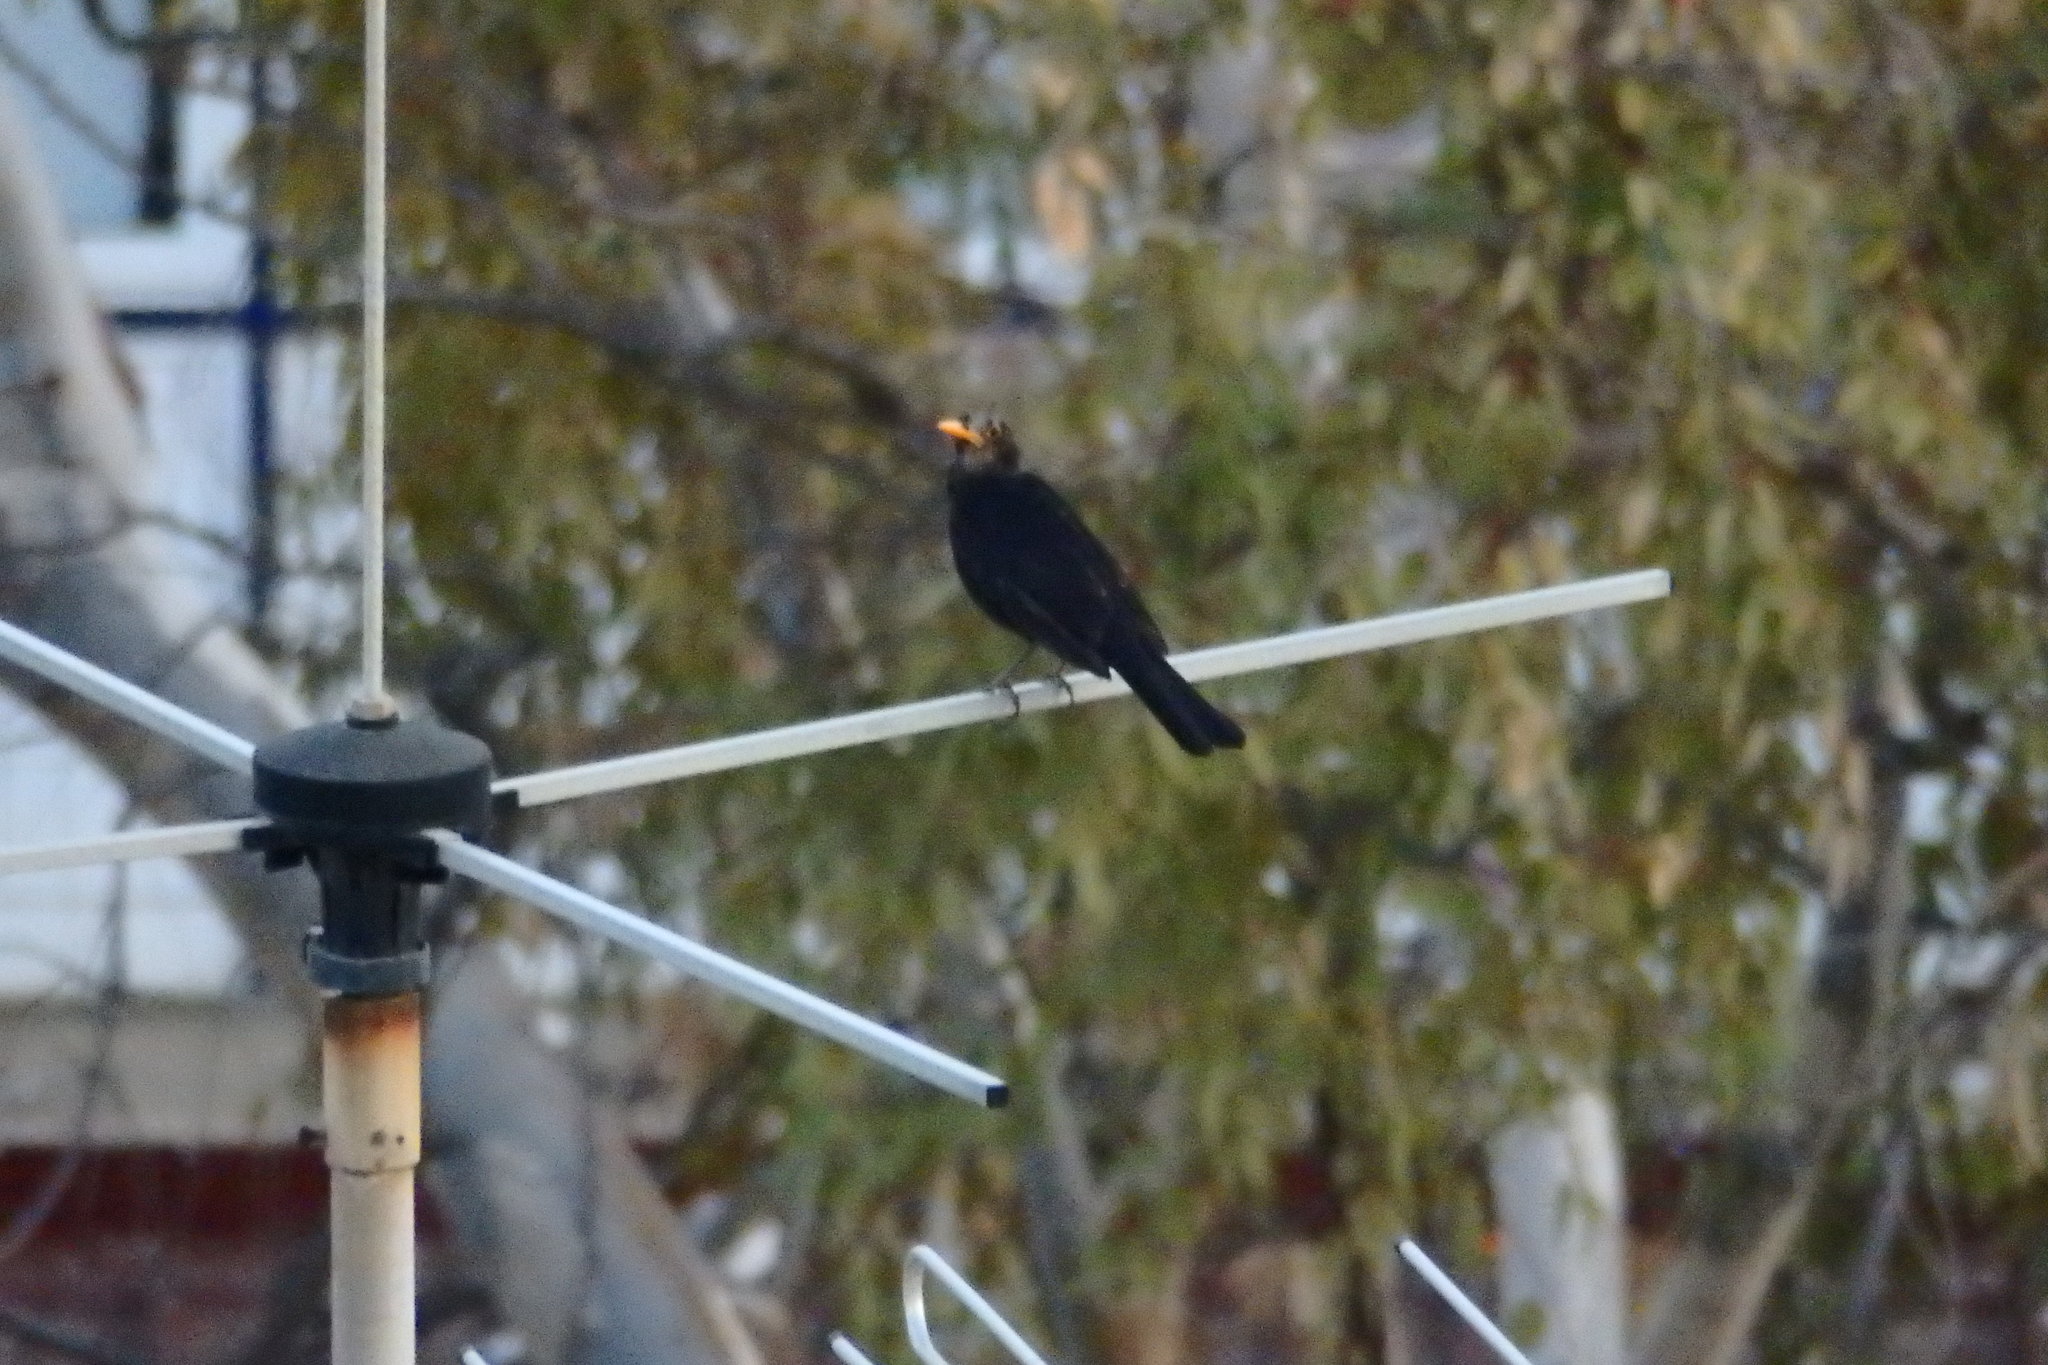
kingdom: Animalia
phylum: Chordata
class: Aves
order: Passeriformes
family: Turdidae
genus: Turdus
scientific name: Turdus merula
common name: Common blackbird
